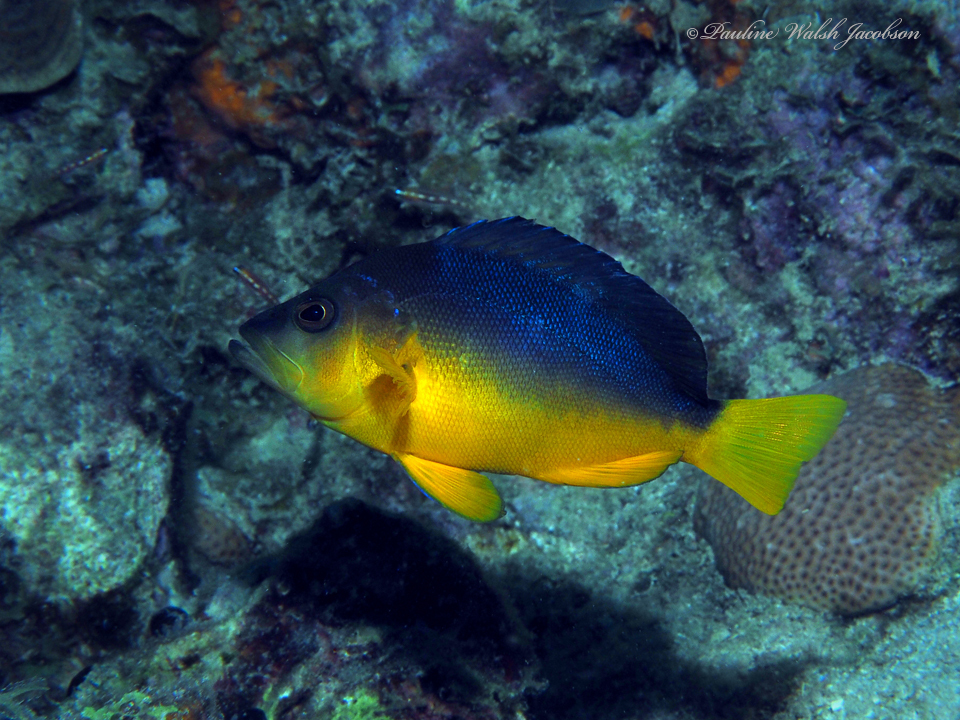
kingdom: Animalia
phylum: Chordata
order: Perciformes
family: Serranidae
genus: Hypoplectrus
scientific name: Hypoplectrus aberrans
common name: Yellowbelly hamlet
